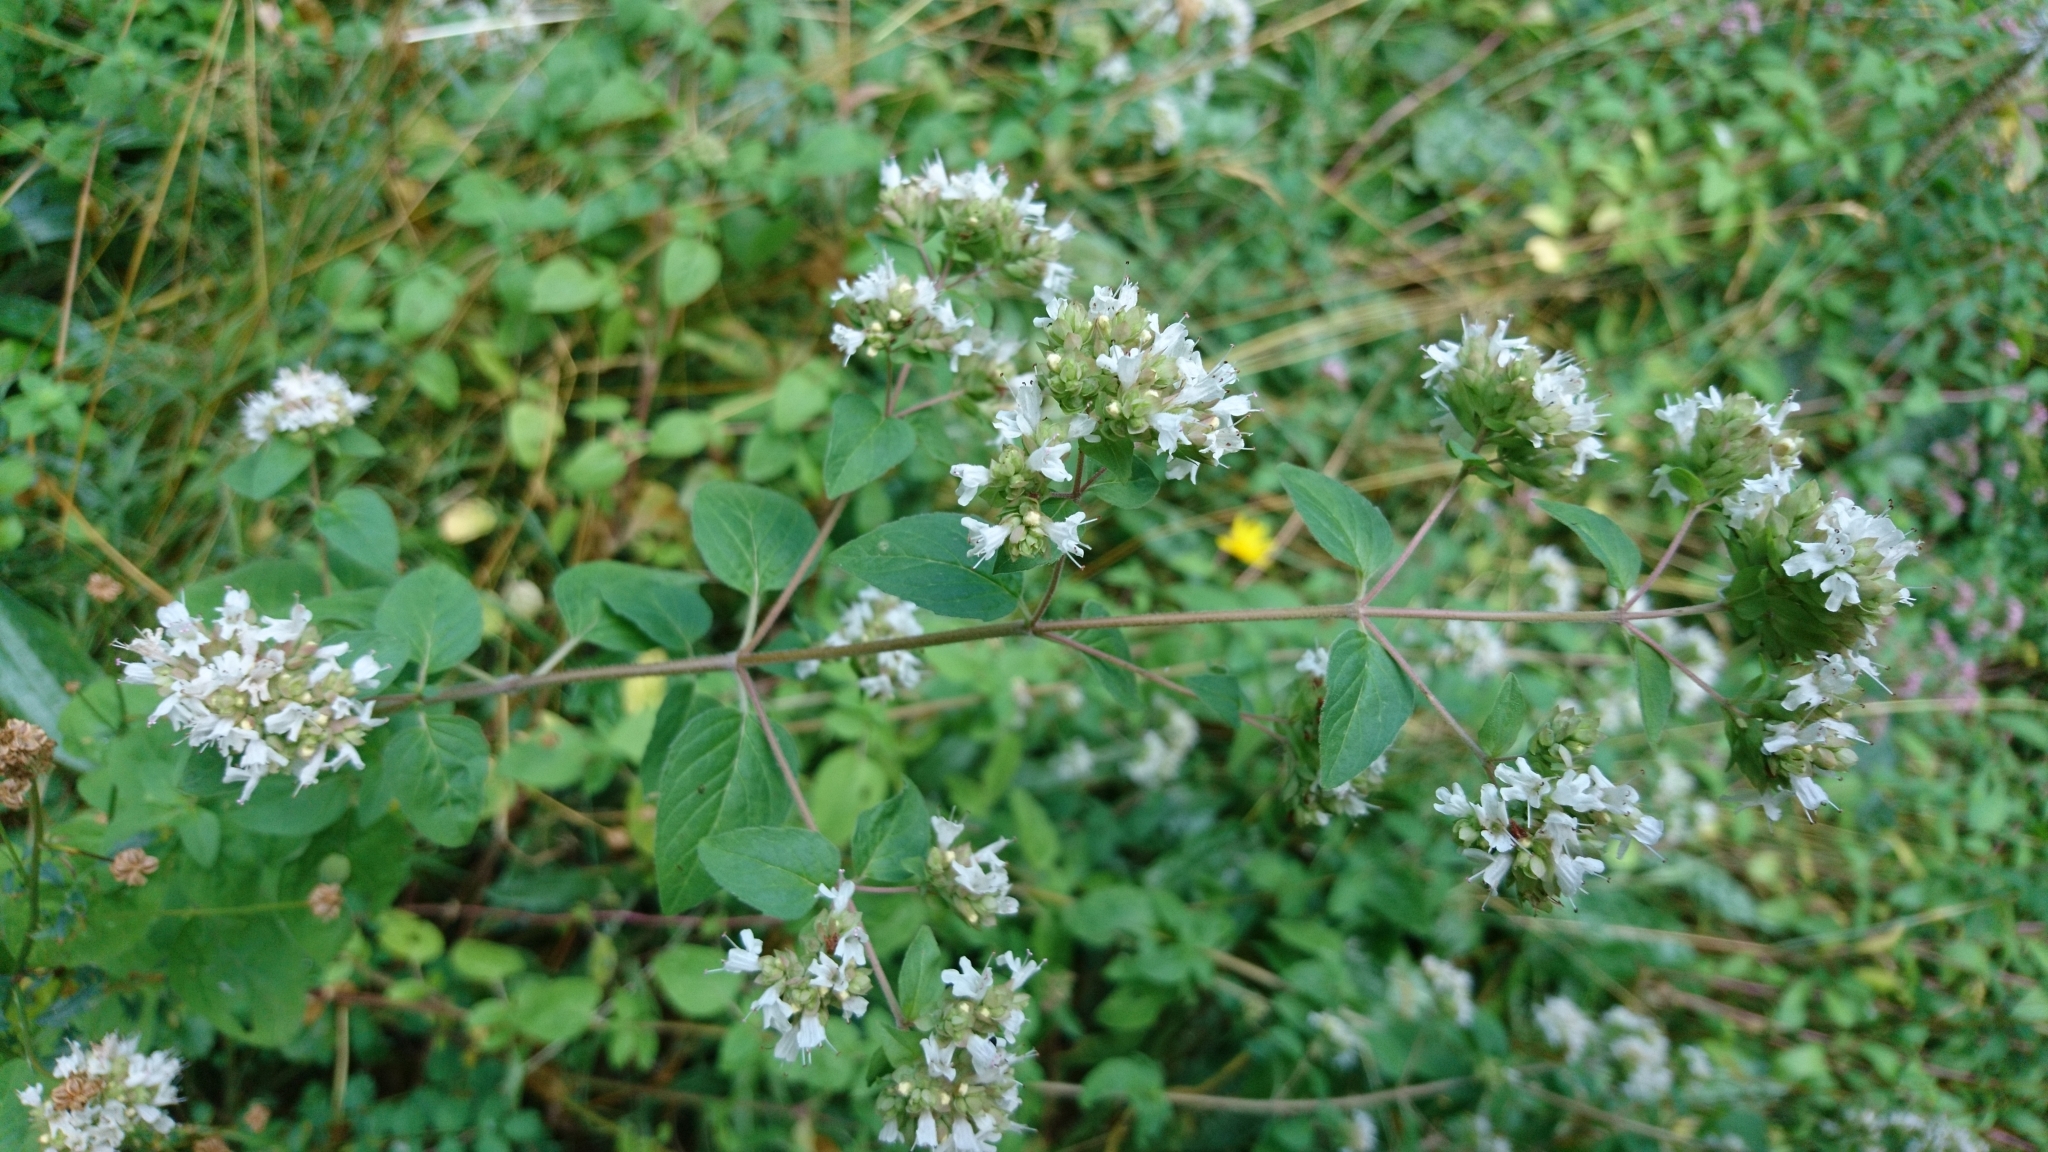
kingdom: Plantae
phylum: Tracheophyta
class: Magnoliopsida
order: Lamiales
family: Lamiaceae
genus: Origanum
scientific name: Origanum vulgare
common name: Wild marjoram
